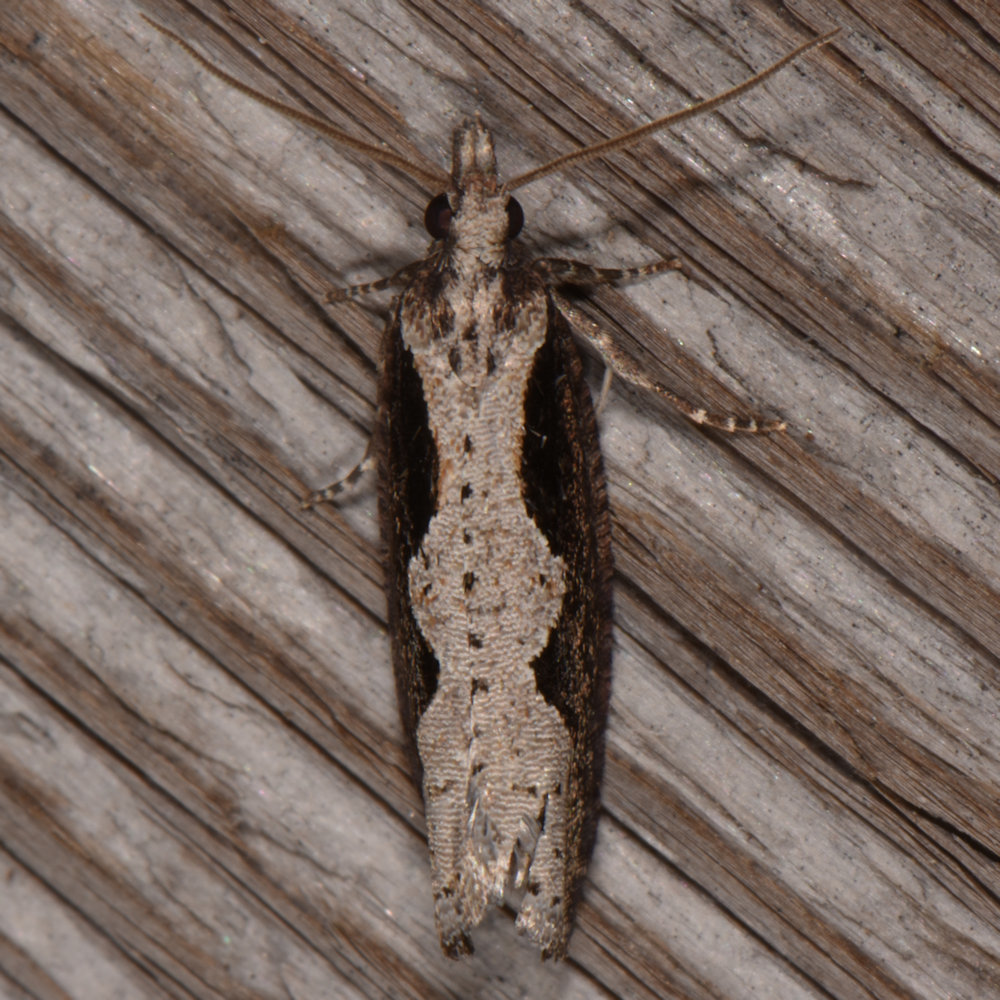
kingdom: Animalia
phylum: Arthropoda
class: Insecta
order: Lepidoptera
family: Tortricidae
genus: Epinotia
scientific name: Epinotia lindana
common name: Diamondback epinotia moth
